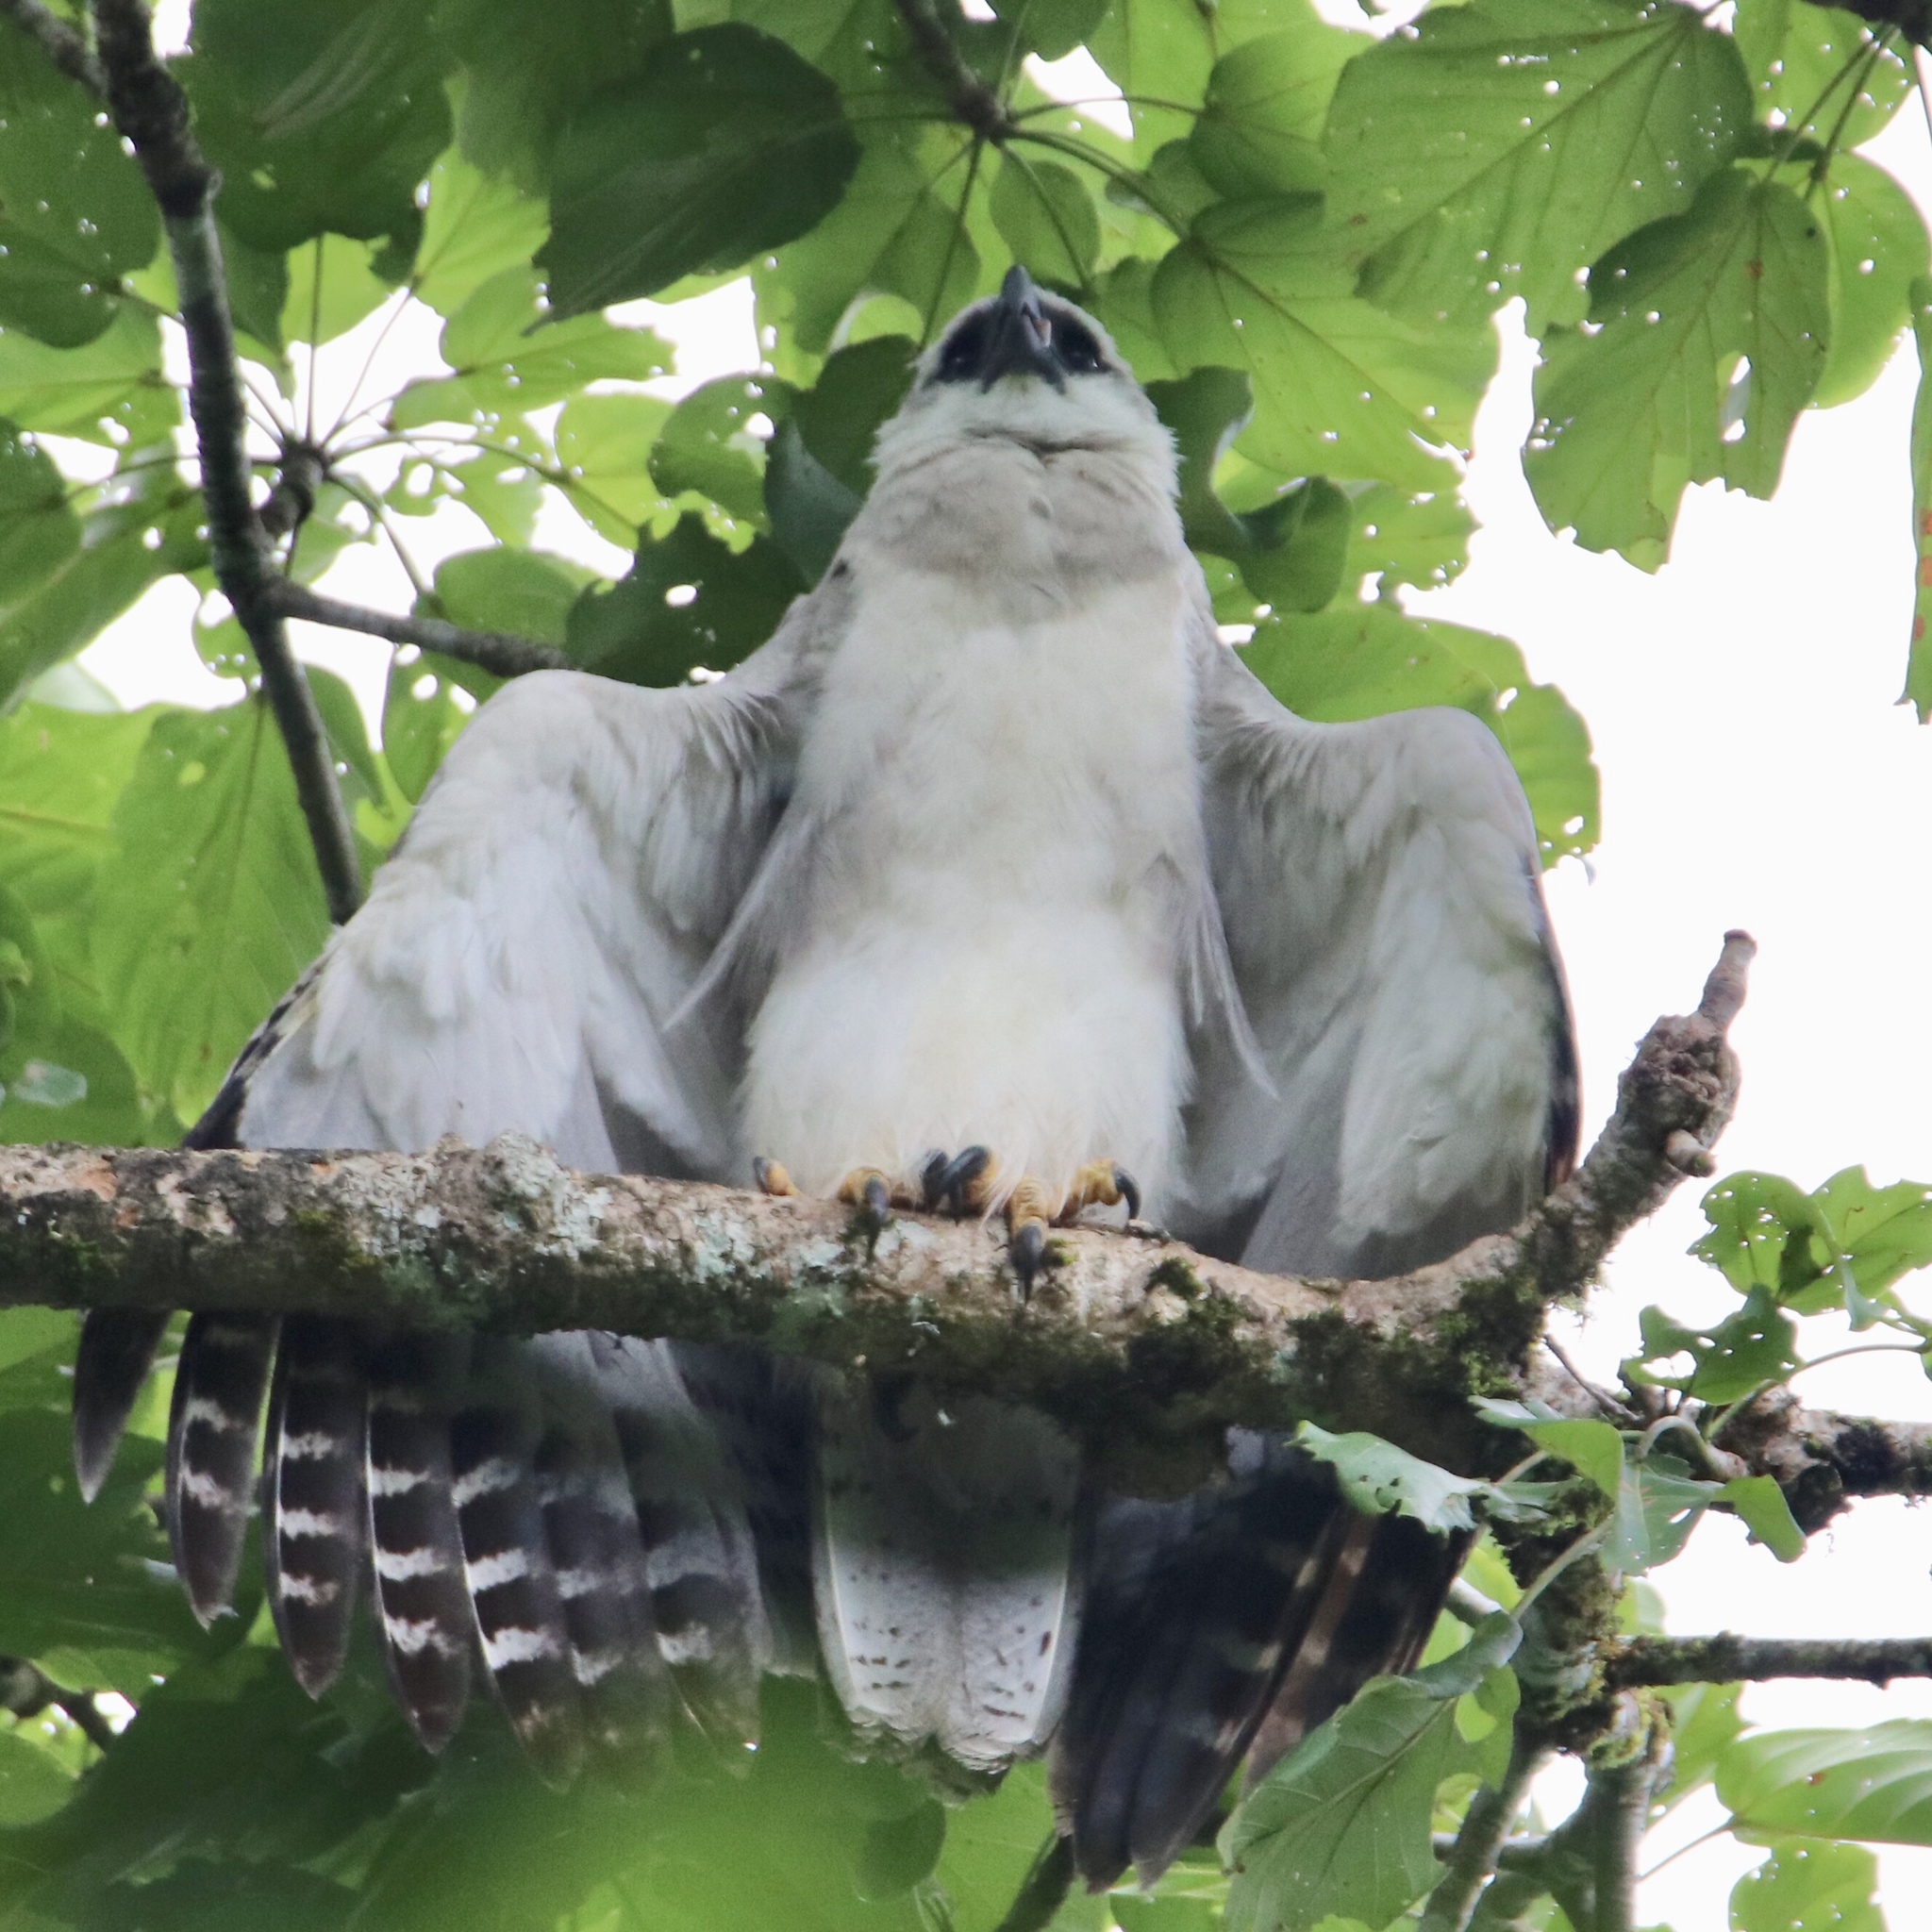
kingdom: Animalia
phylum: Chordata
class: Aves
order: Accipitriformes
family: Accipitridae
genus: Harpia
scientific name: Harpia harpyja
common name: Harpy eagle
